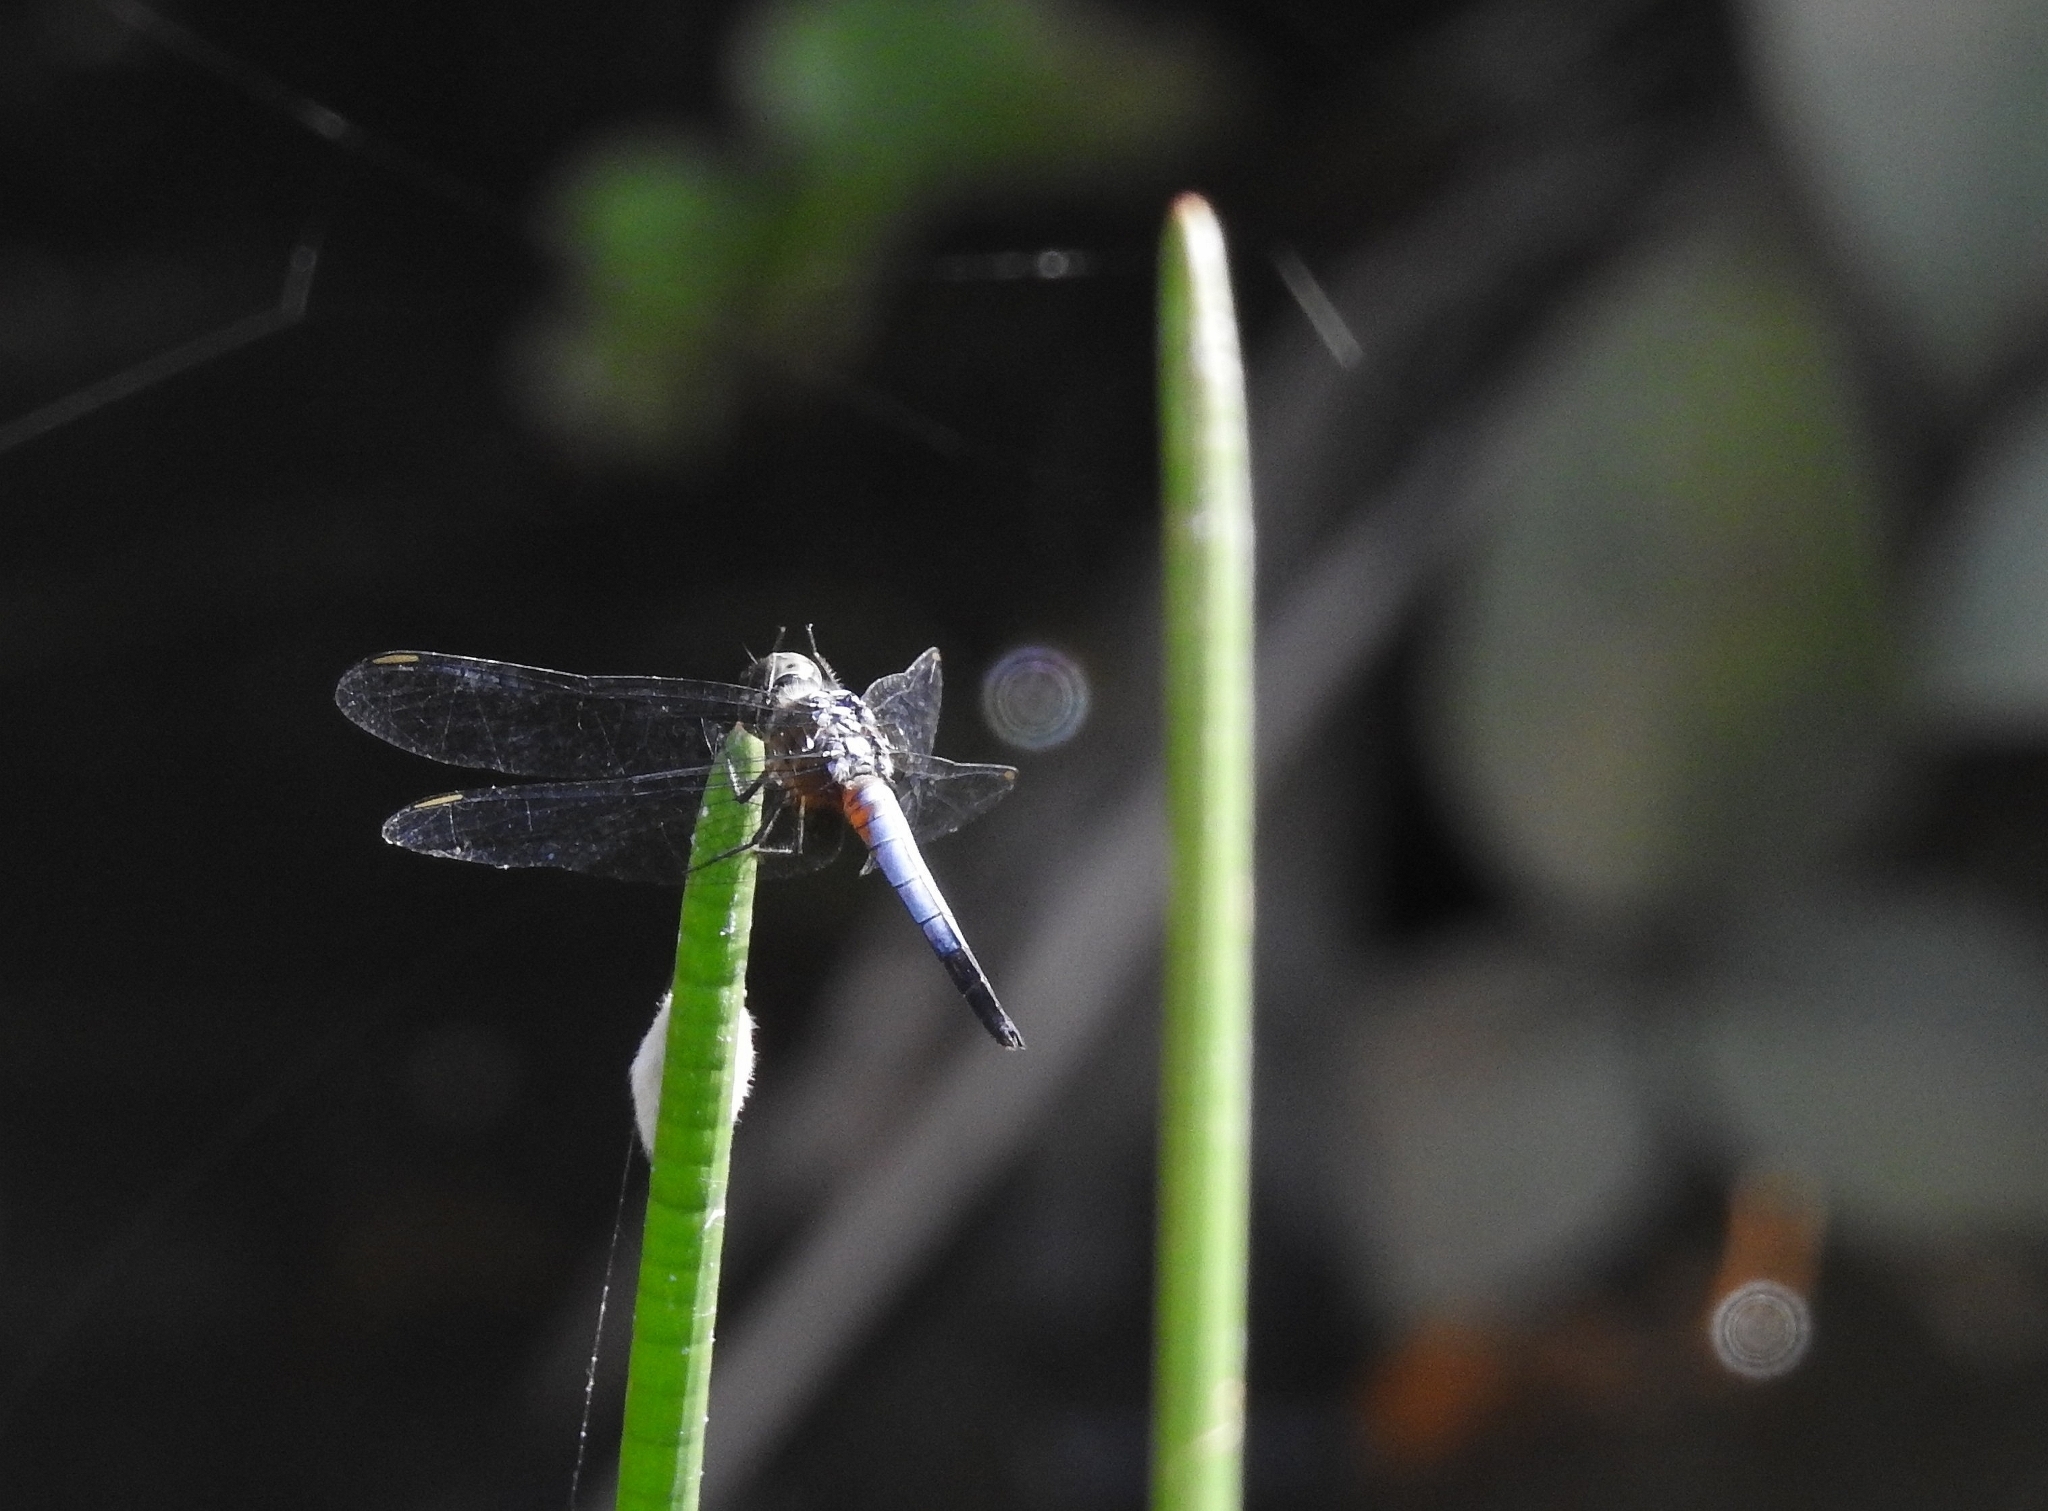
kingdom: Animalia
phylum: Arthropoda
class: Insecta
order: Odonata
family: Libellulidae
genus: Brachydiplax
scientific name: Brachydiplax chalybea
